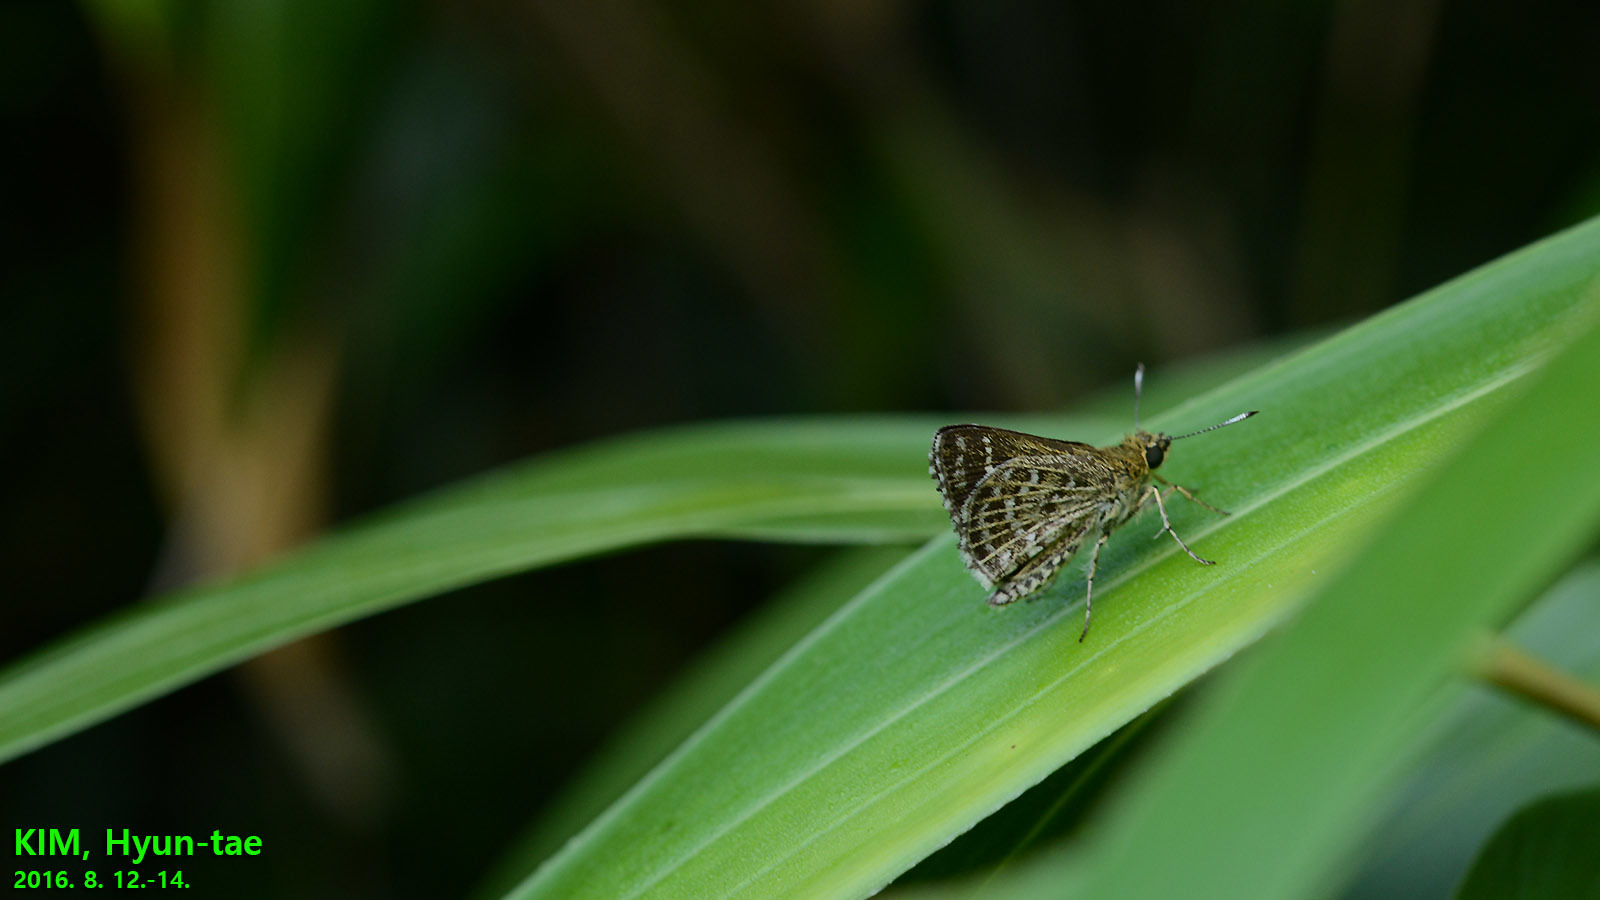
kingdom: Animalia
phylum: Arthropoda
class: Insecta
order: Lepidoptera
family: Hesperiidae
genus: Aeromachus
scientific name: Aeromachus inachus
